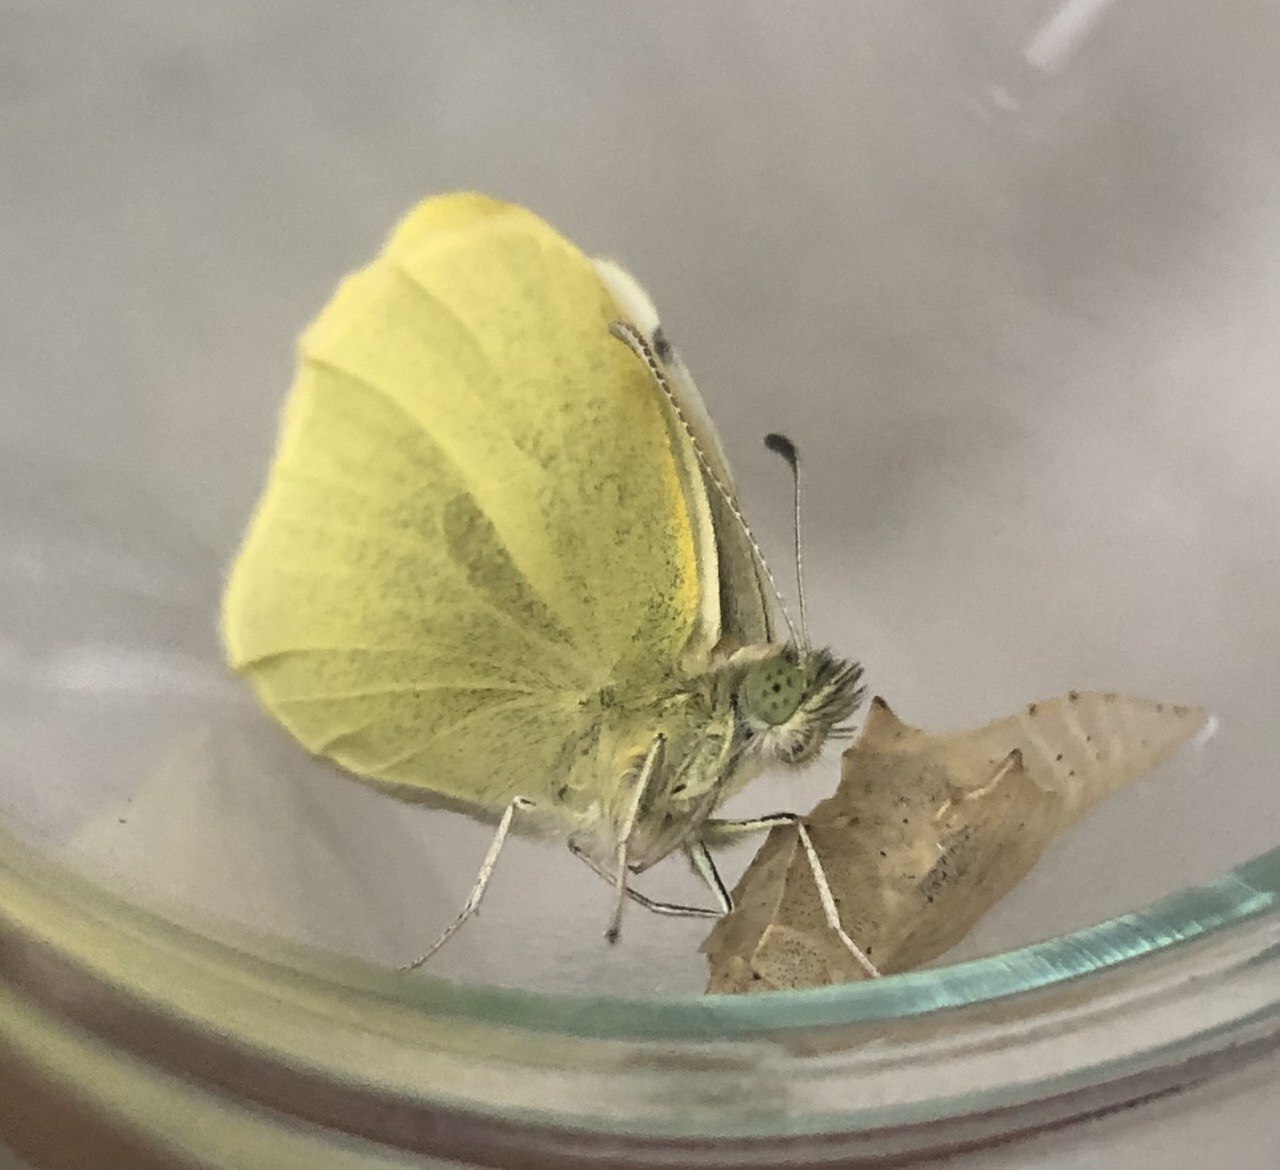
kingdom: Animalia
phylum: Arthropoda
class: Insecta
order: Lepidoptera
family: Pieridae
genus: Pieris
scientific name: Pieris rapae
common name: Small white
